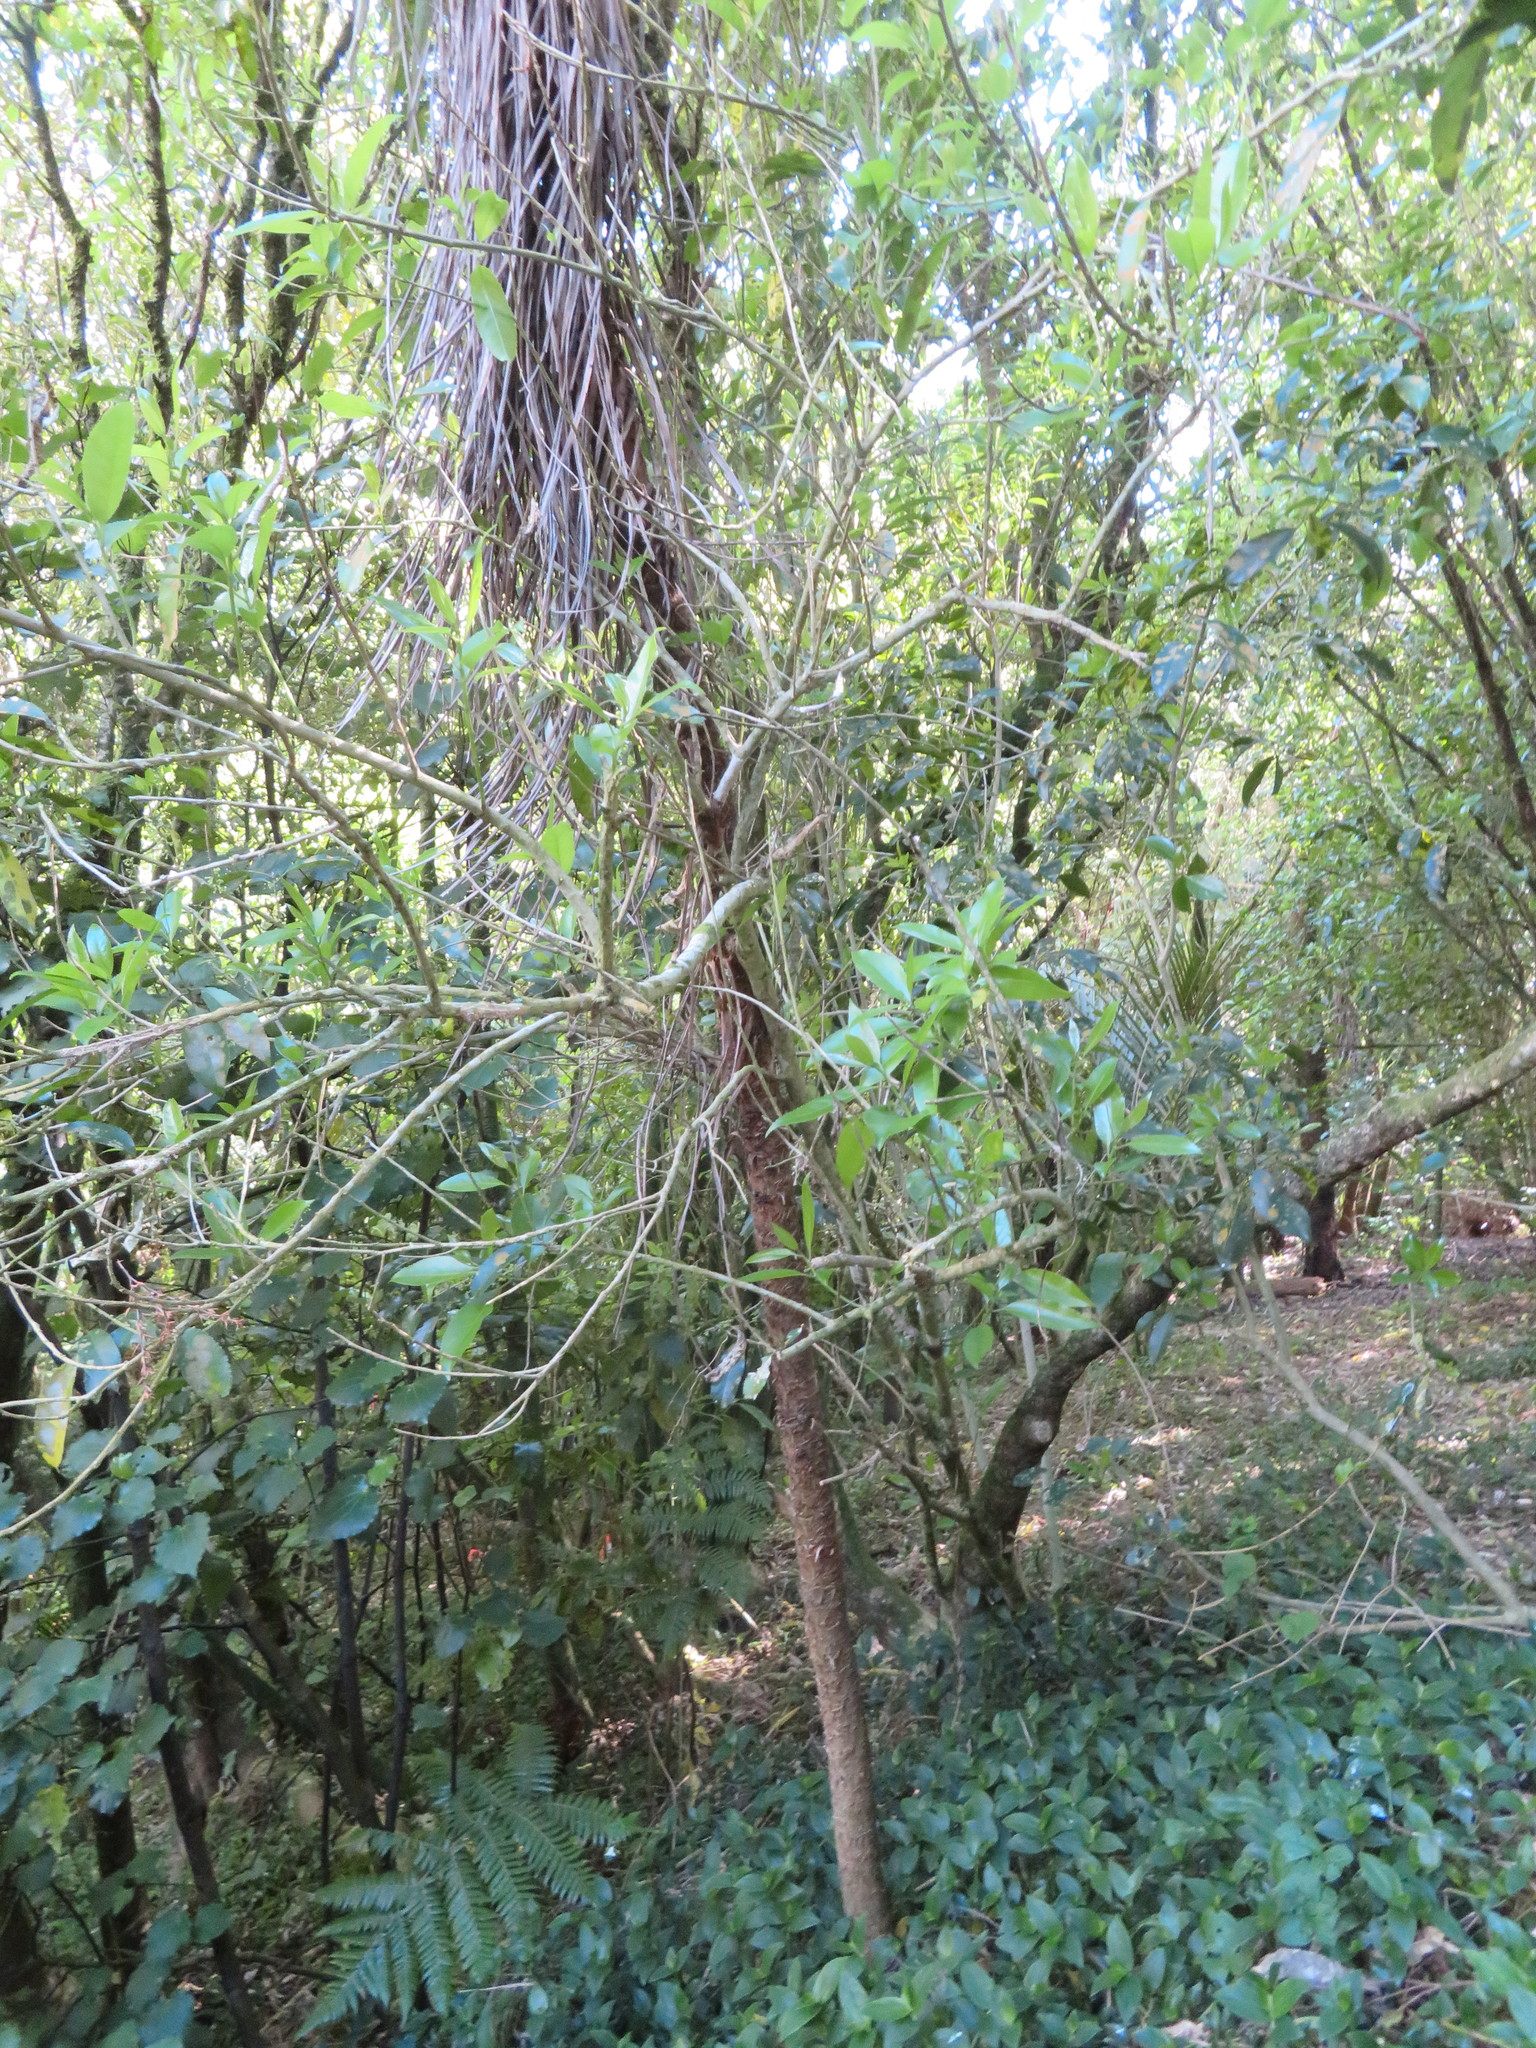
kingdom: Plantae
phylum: Tracheophyta
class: Liliopsida
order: Asparagales
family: Asparagaceae
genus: Cordyline
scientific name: Cordyline australis
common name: Cabbage-palm
